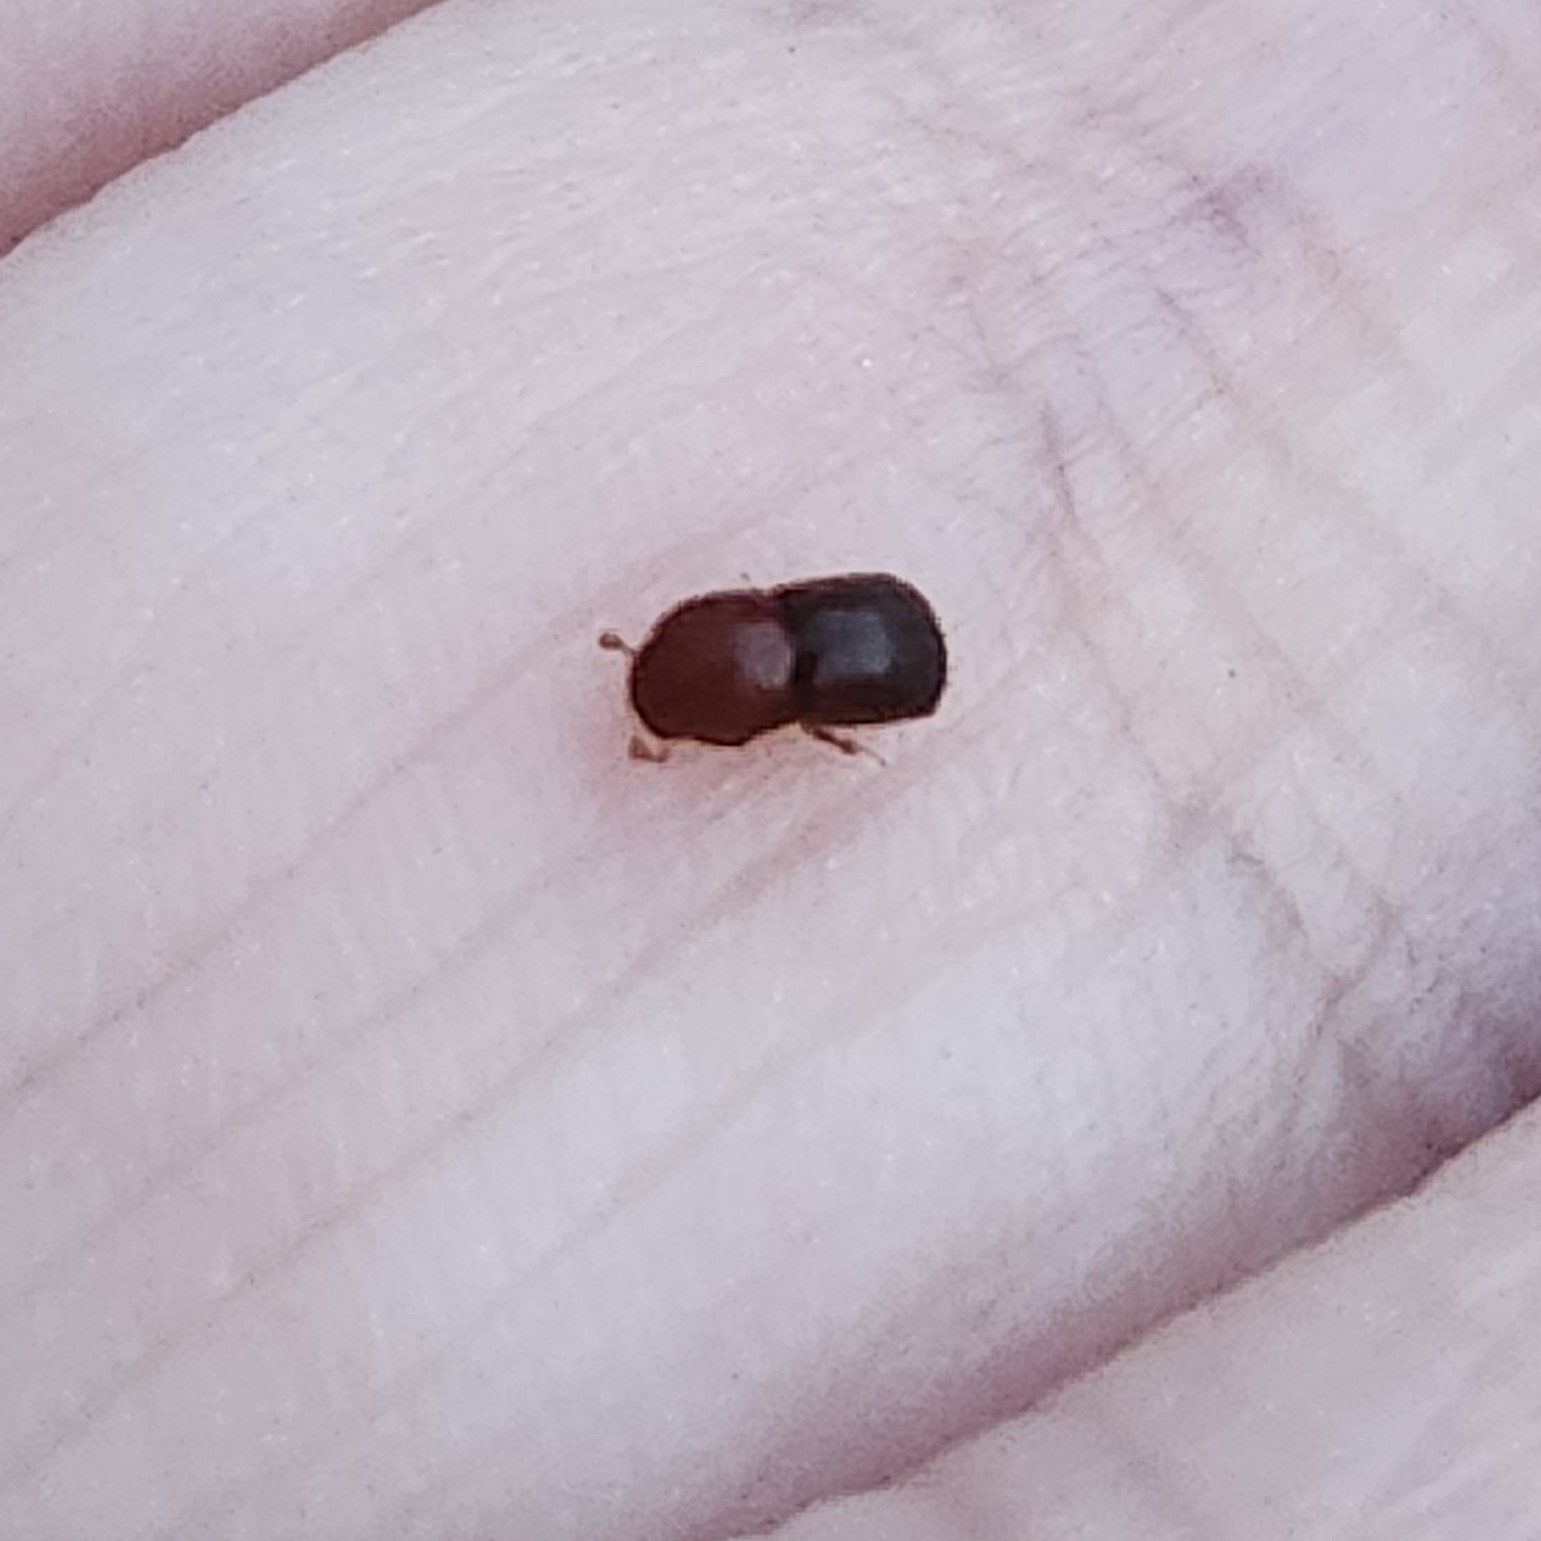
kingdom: Animalia
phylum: Arthropoda
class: Insecta
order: Coleoptera
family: Curculionidae
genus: Xylosandrus
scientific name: Xylosandrus crassiusculus
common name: Granulate ambrosia beetle
